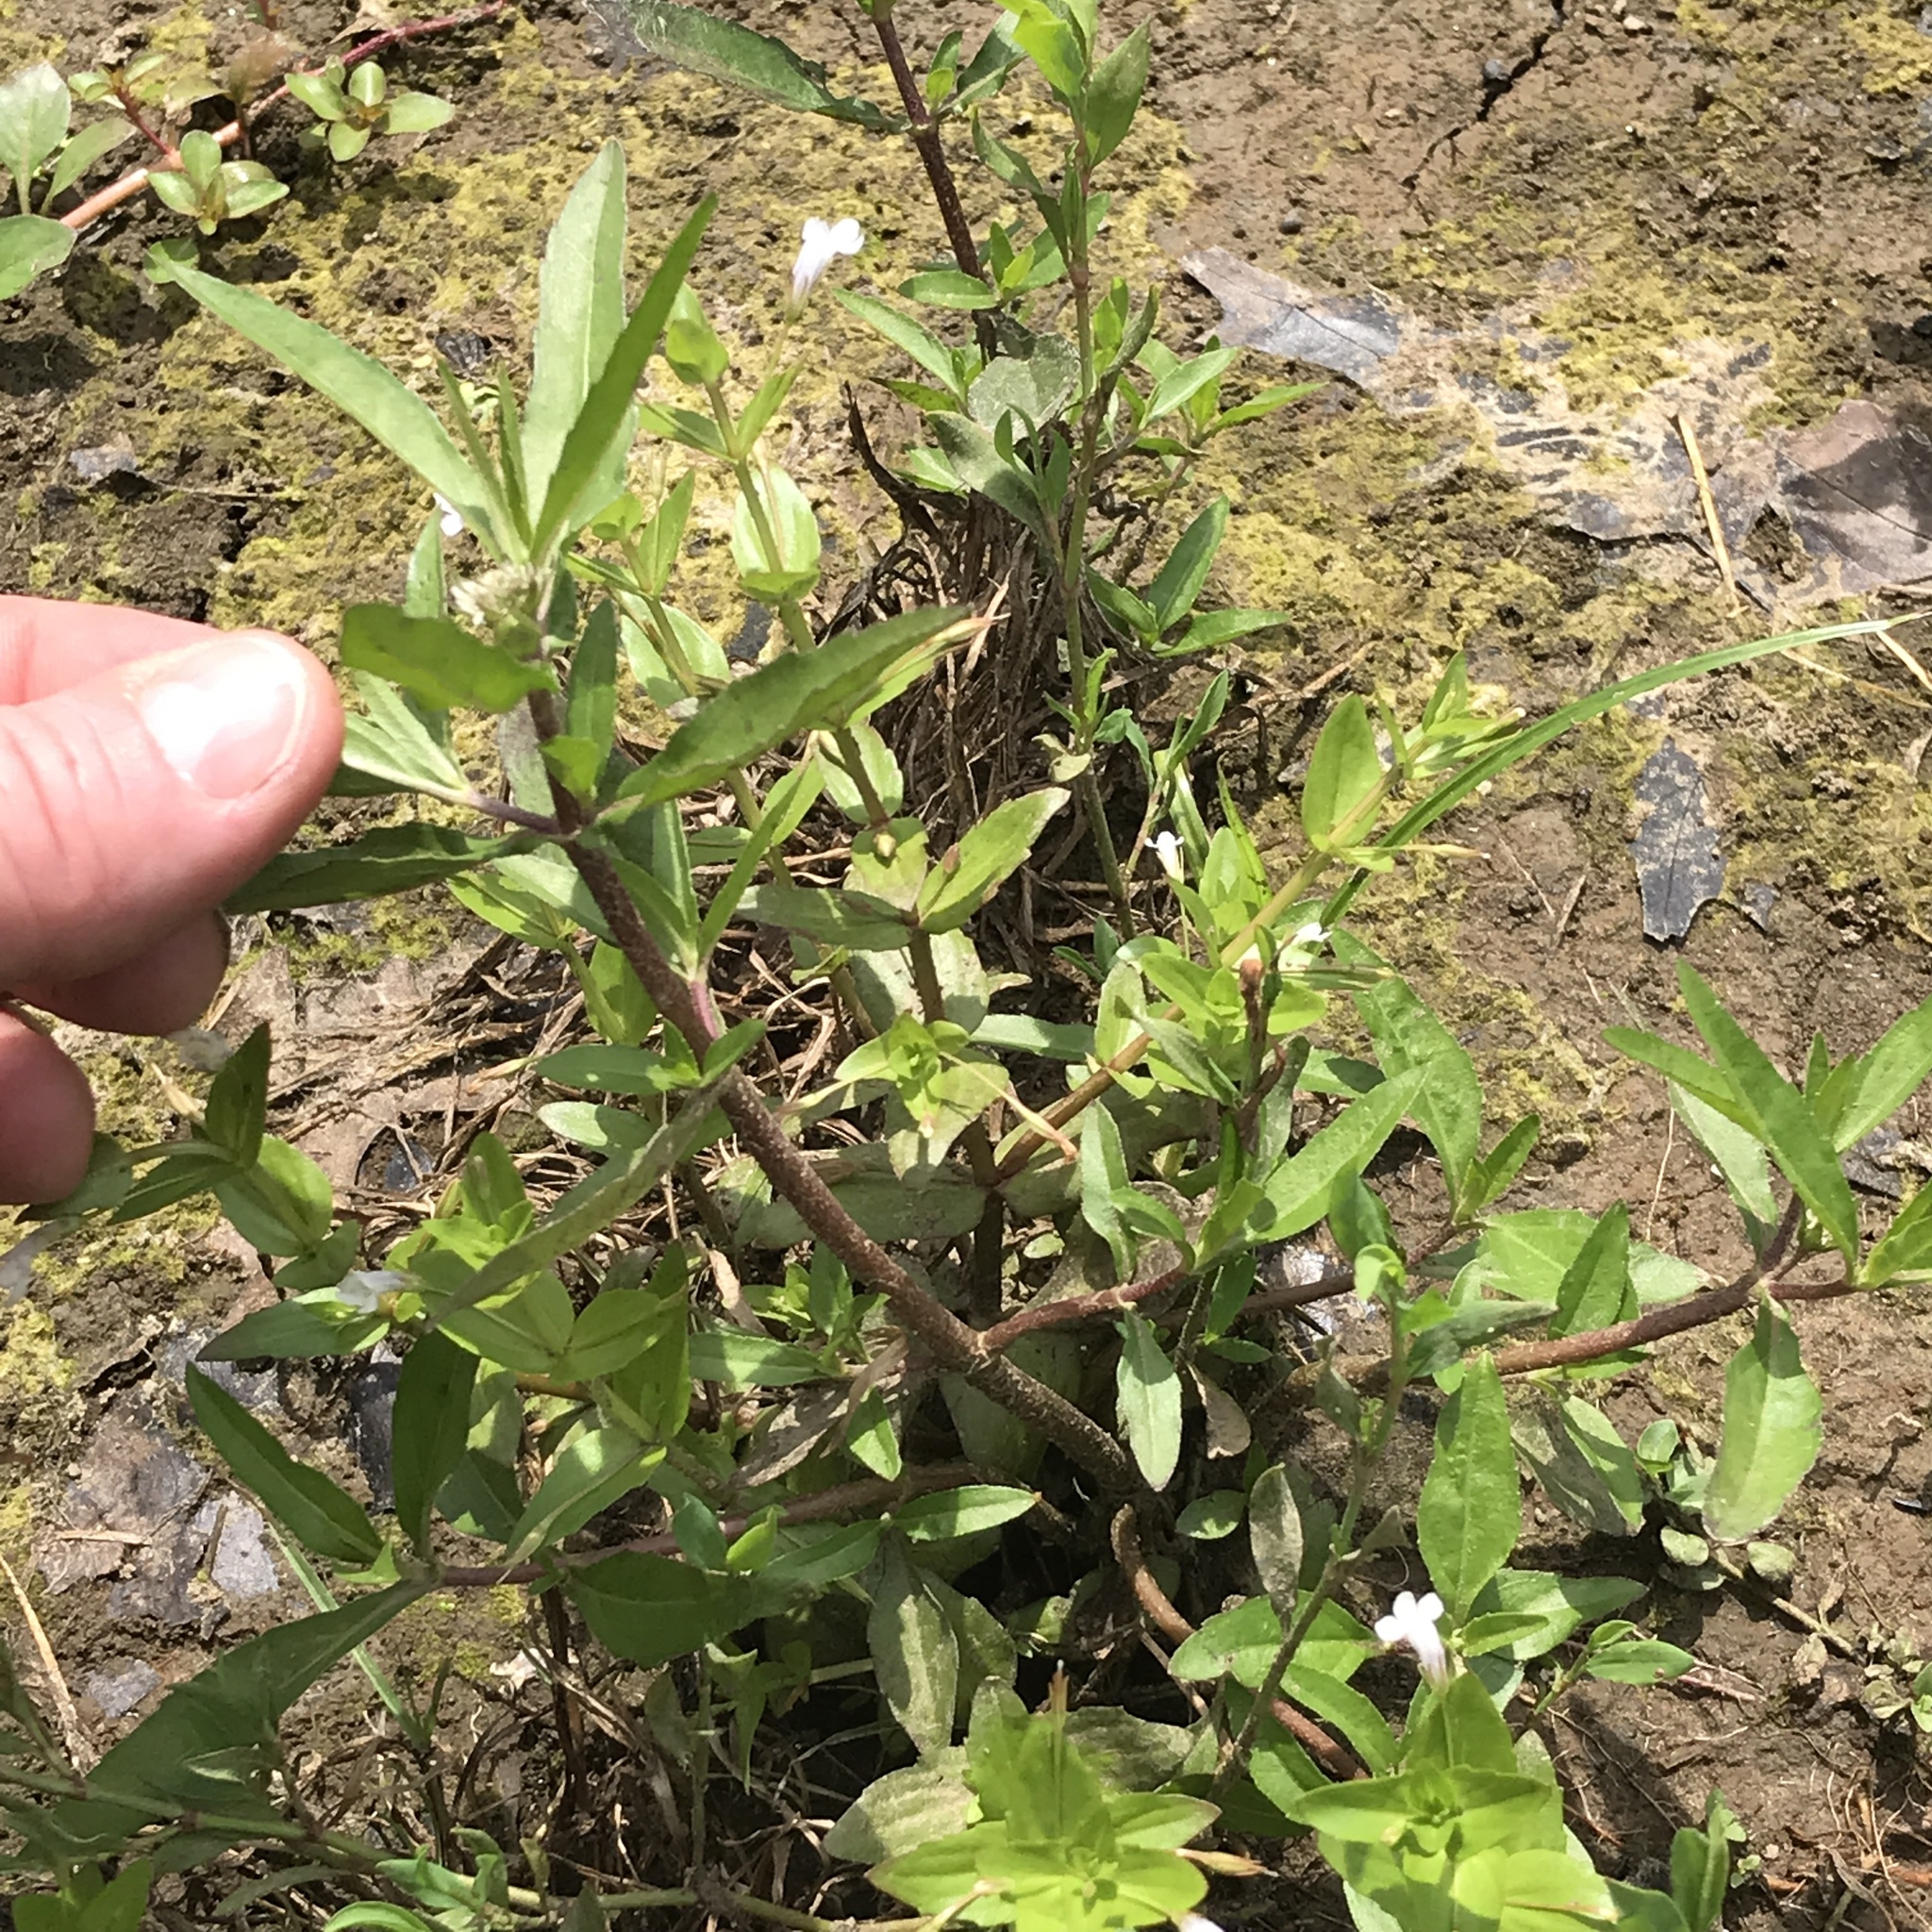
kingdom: Plantae
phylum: Tracheophyta
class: Magnoliopsida
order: Asterales
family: Asteraceae
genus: Eclipta
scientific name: Eclipta prostrata
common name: False daisy
